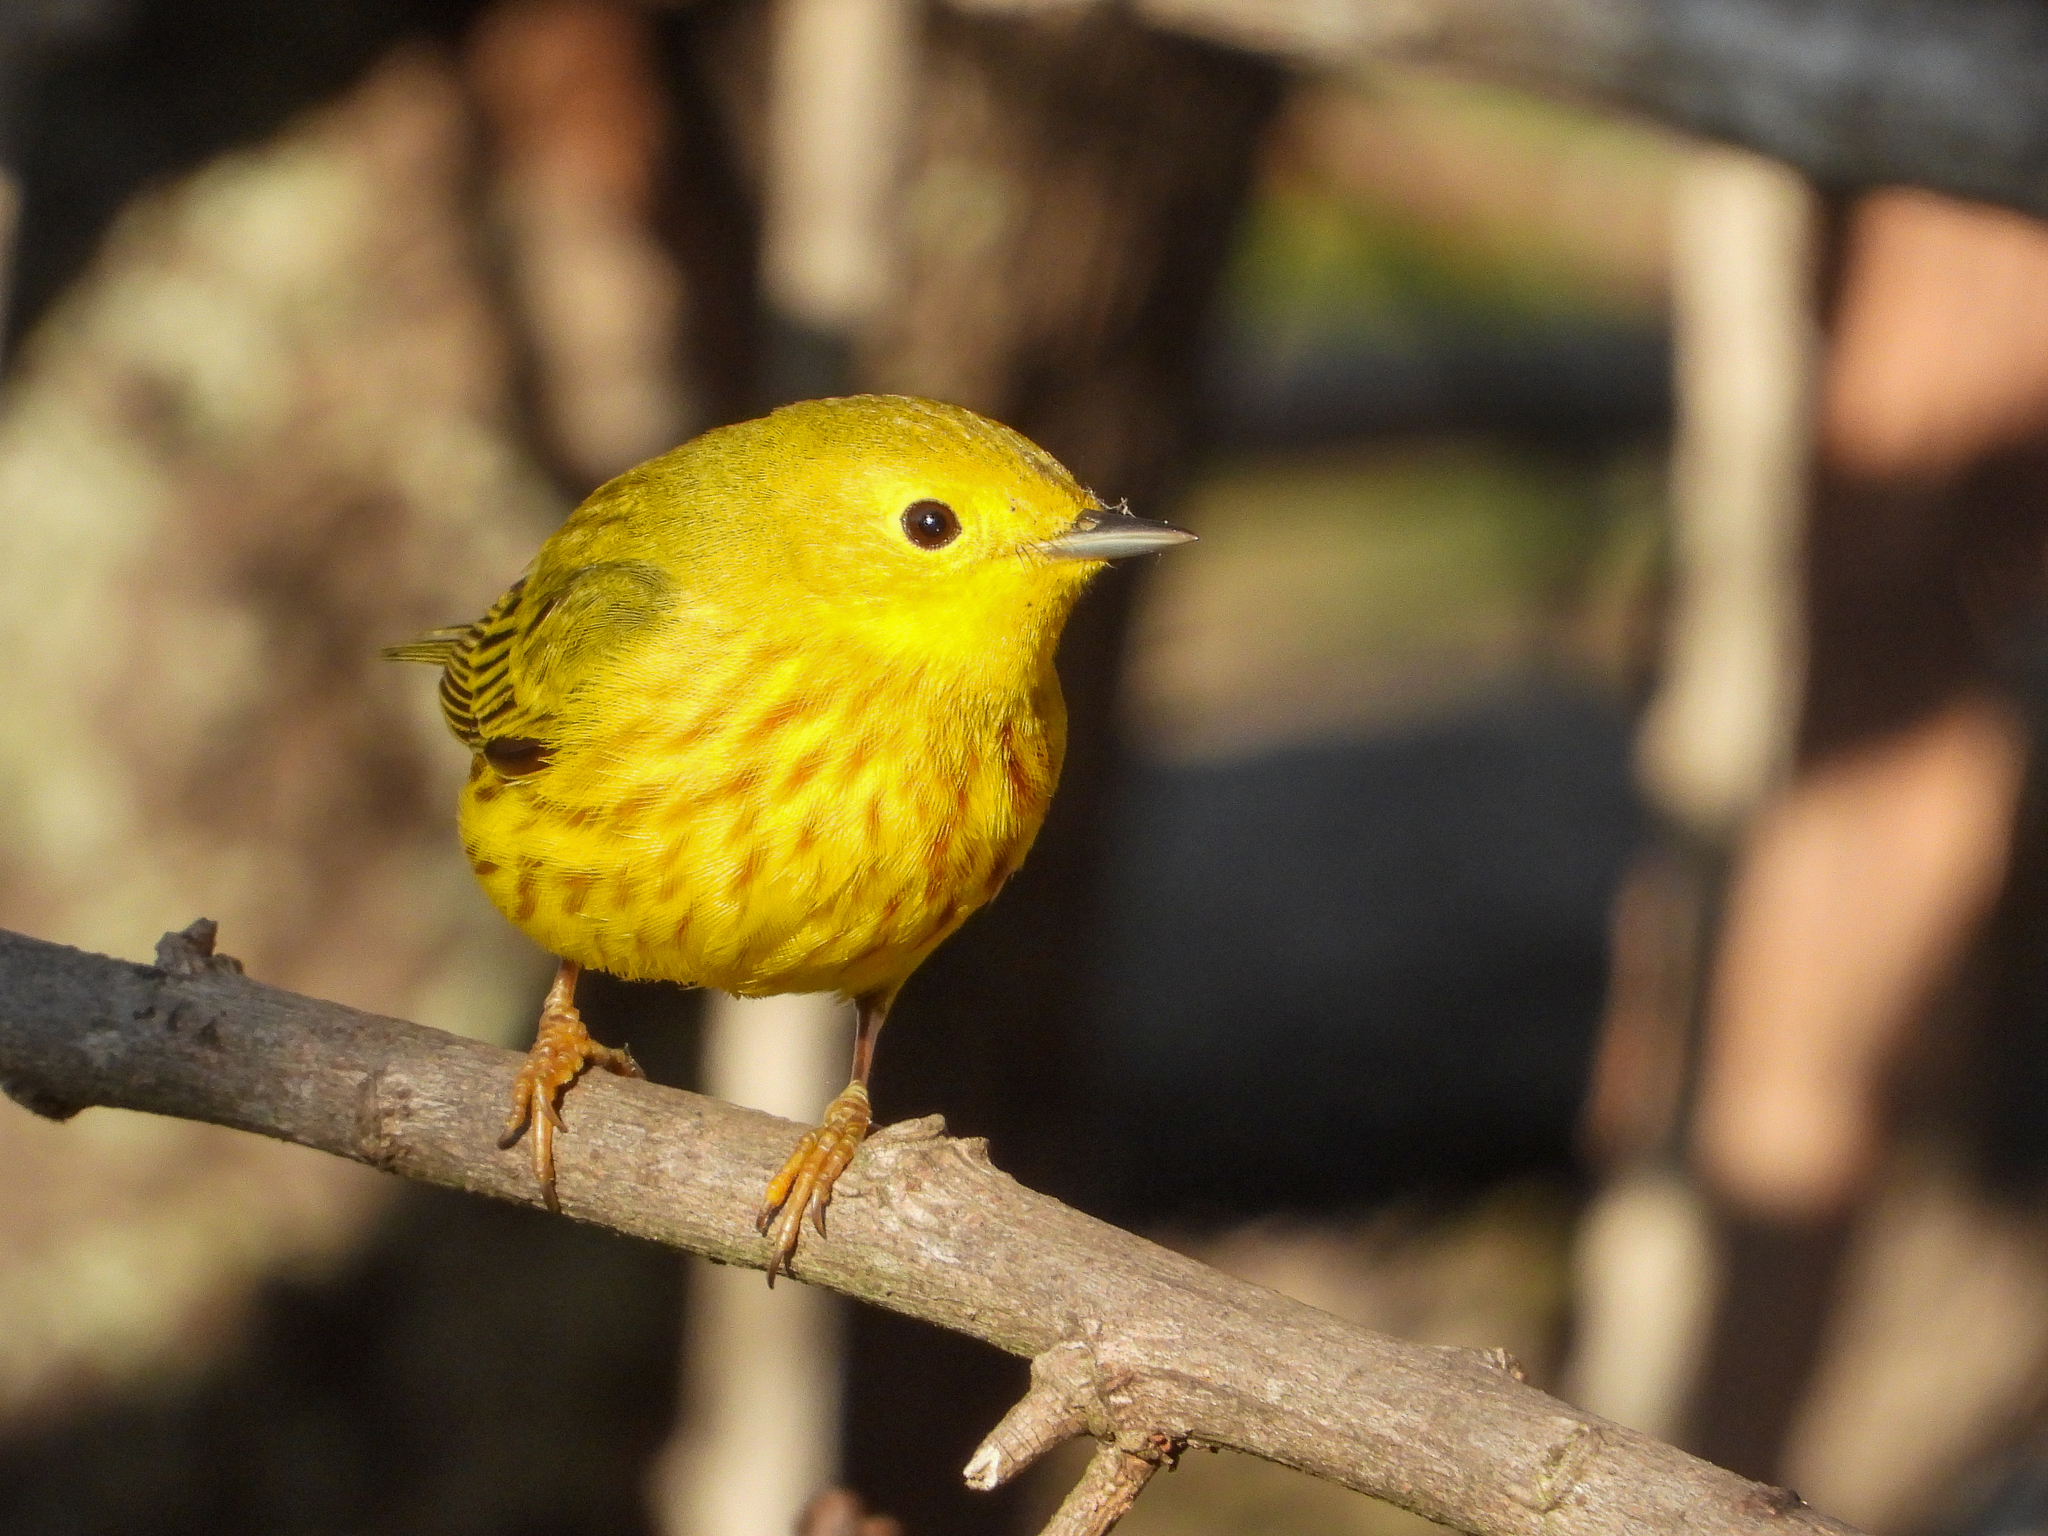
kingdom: Animalia
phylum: Chordata
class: Aves
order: Passeriformes
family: Parulidae
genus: Setophaga
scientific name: Setophaga petechia
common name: Yellow warbler
